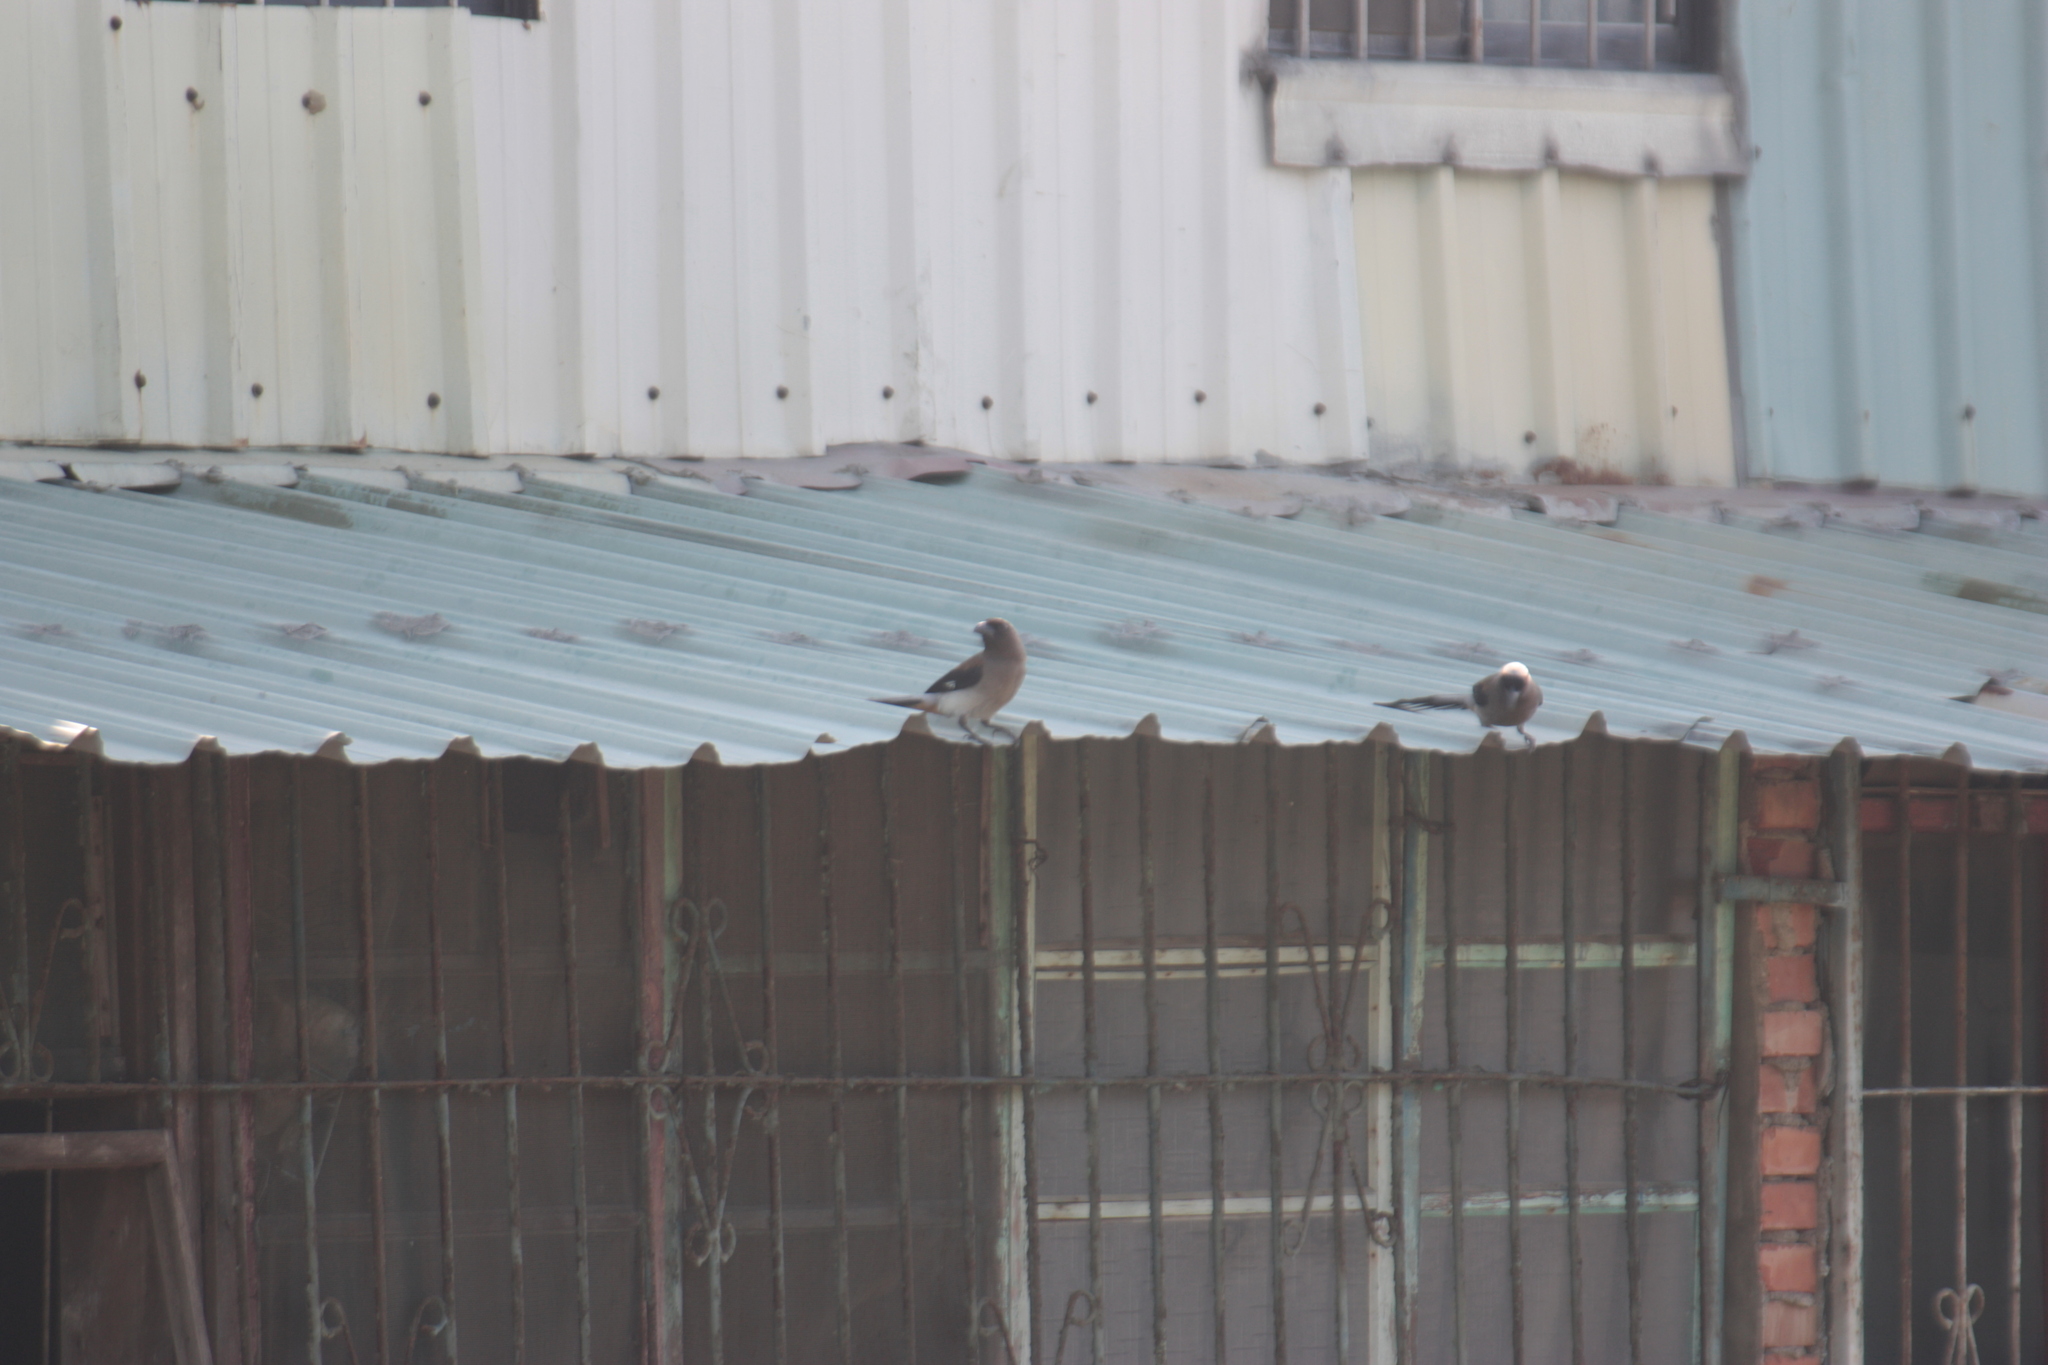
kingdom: Animalia
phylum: Chordata
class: Aves
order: Passeriformes
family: Corvidae
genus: Dendrocitta
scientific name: Dendrocitta formosae
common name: Grey treepie
